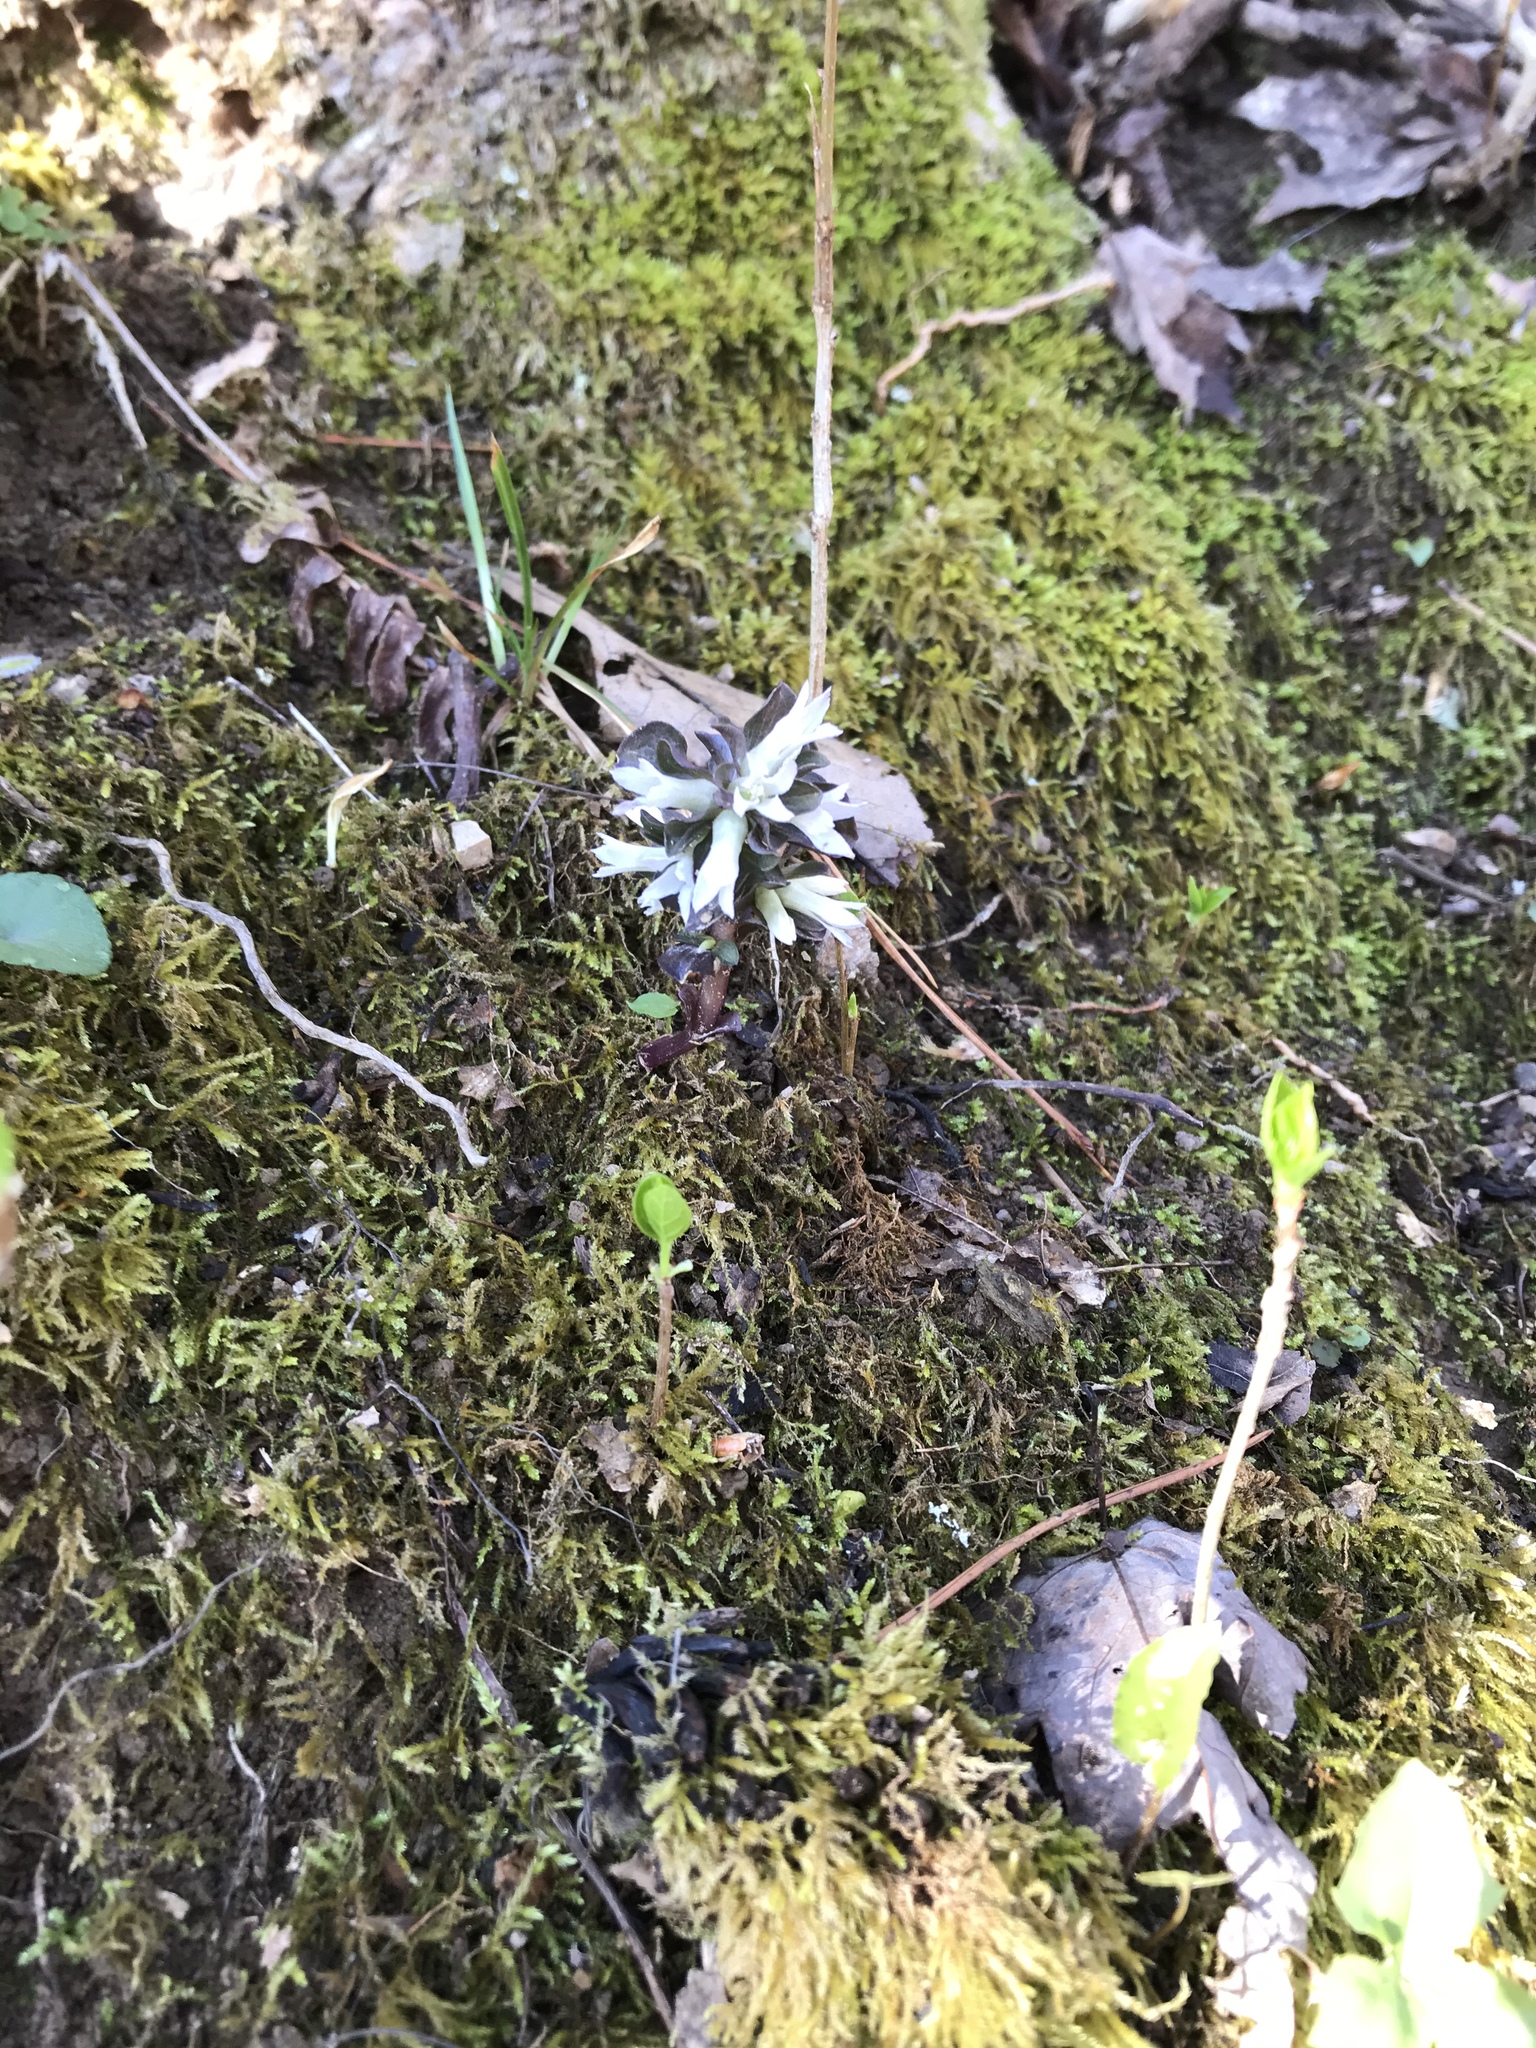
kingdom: Plantae
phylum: Tracheophyta
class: Magnoliopsida
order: Gentianales
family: Gentianaceae
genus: Obolaria
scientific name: Obolaria virginica
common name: Pennywort
